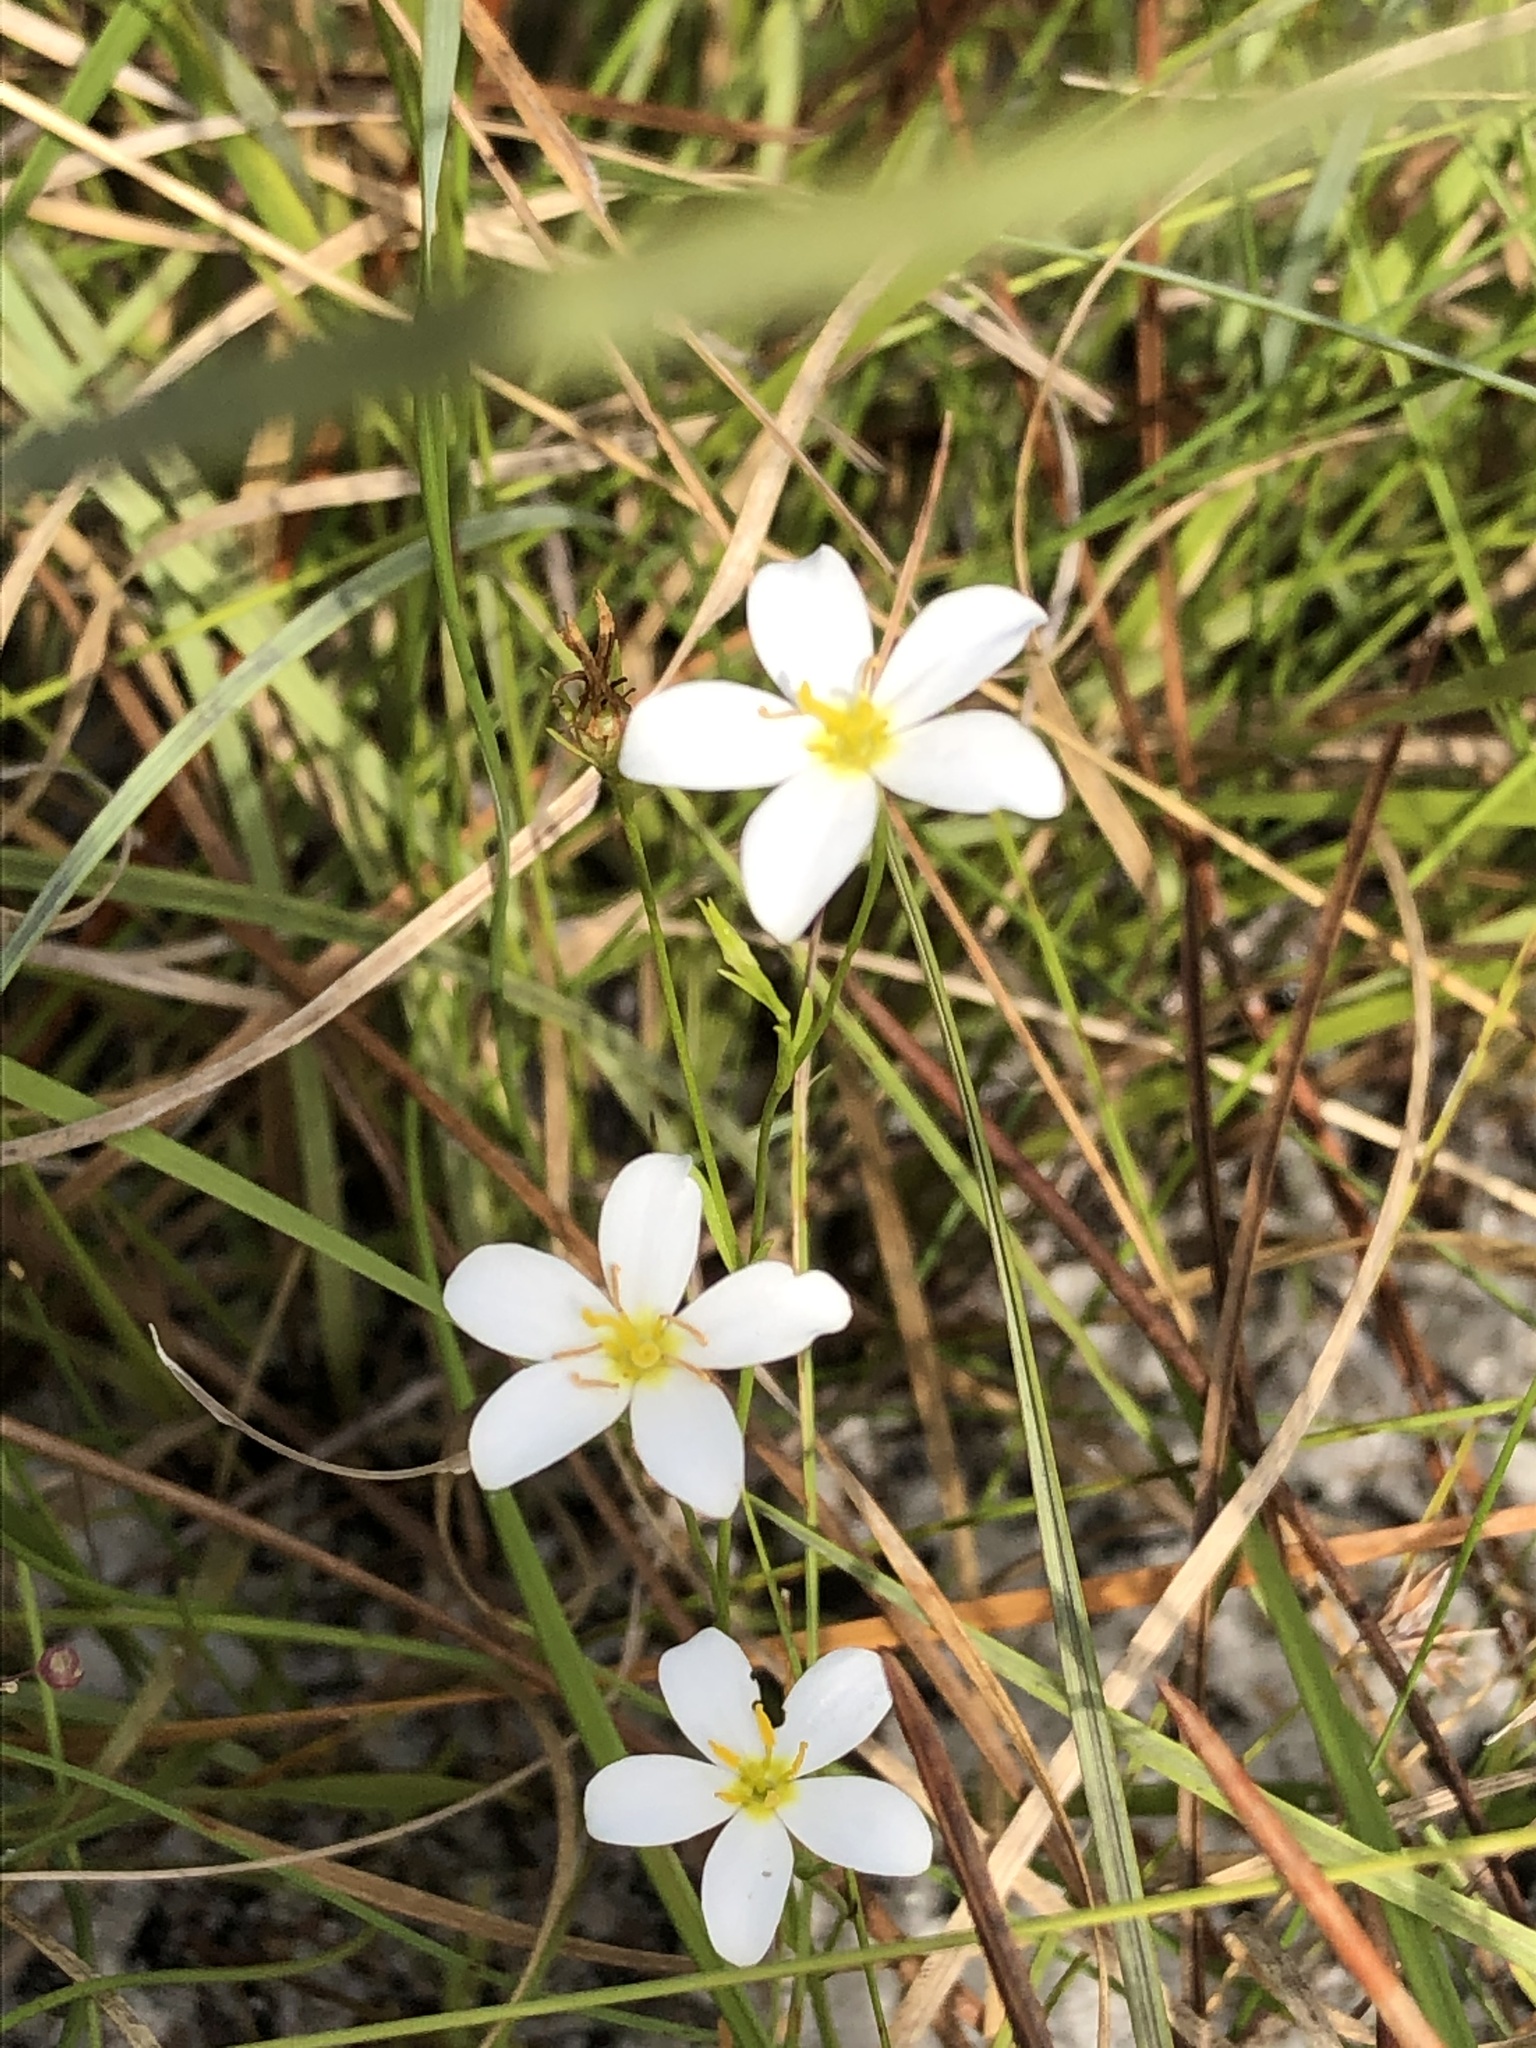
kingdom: Plantae
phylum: Tracheophyta
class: Magnoliopsida
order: Gentianales
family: Gentianaceae
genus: Sabatia
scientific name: Sabatia brevifolia
